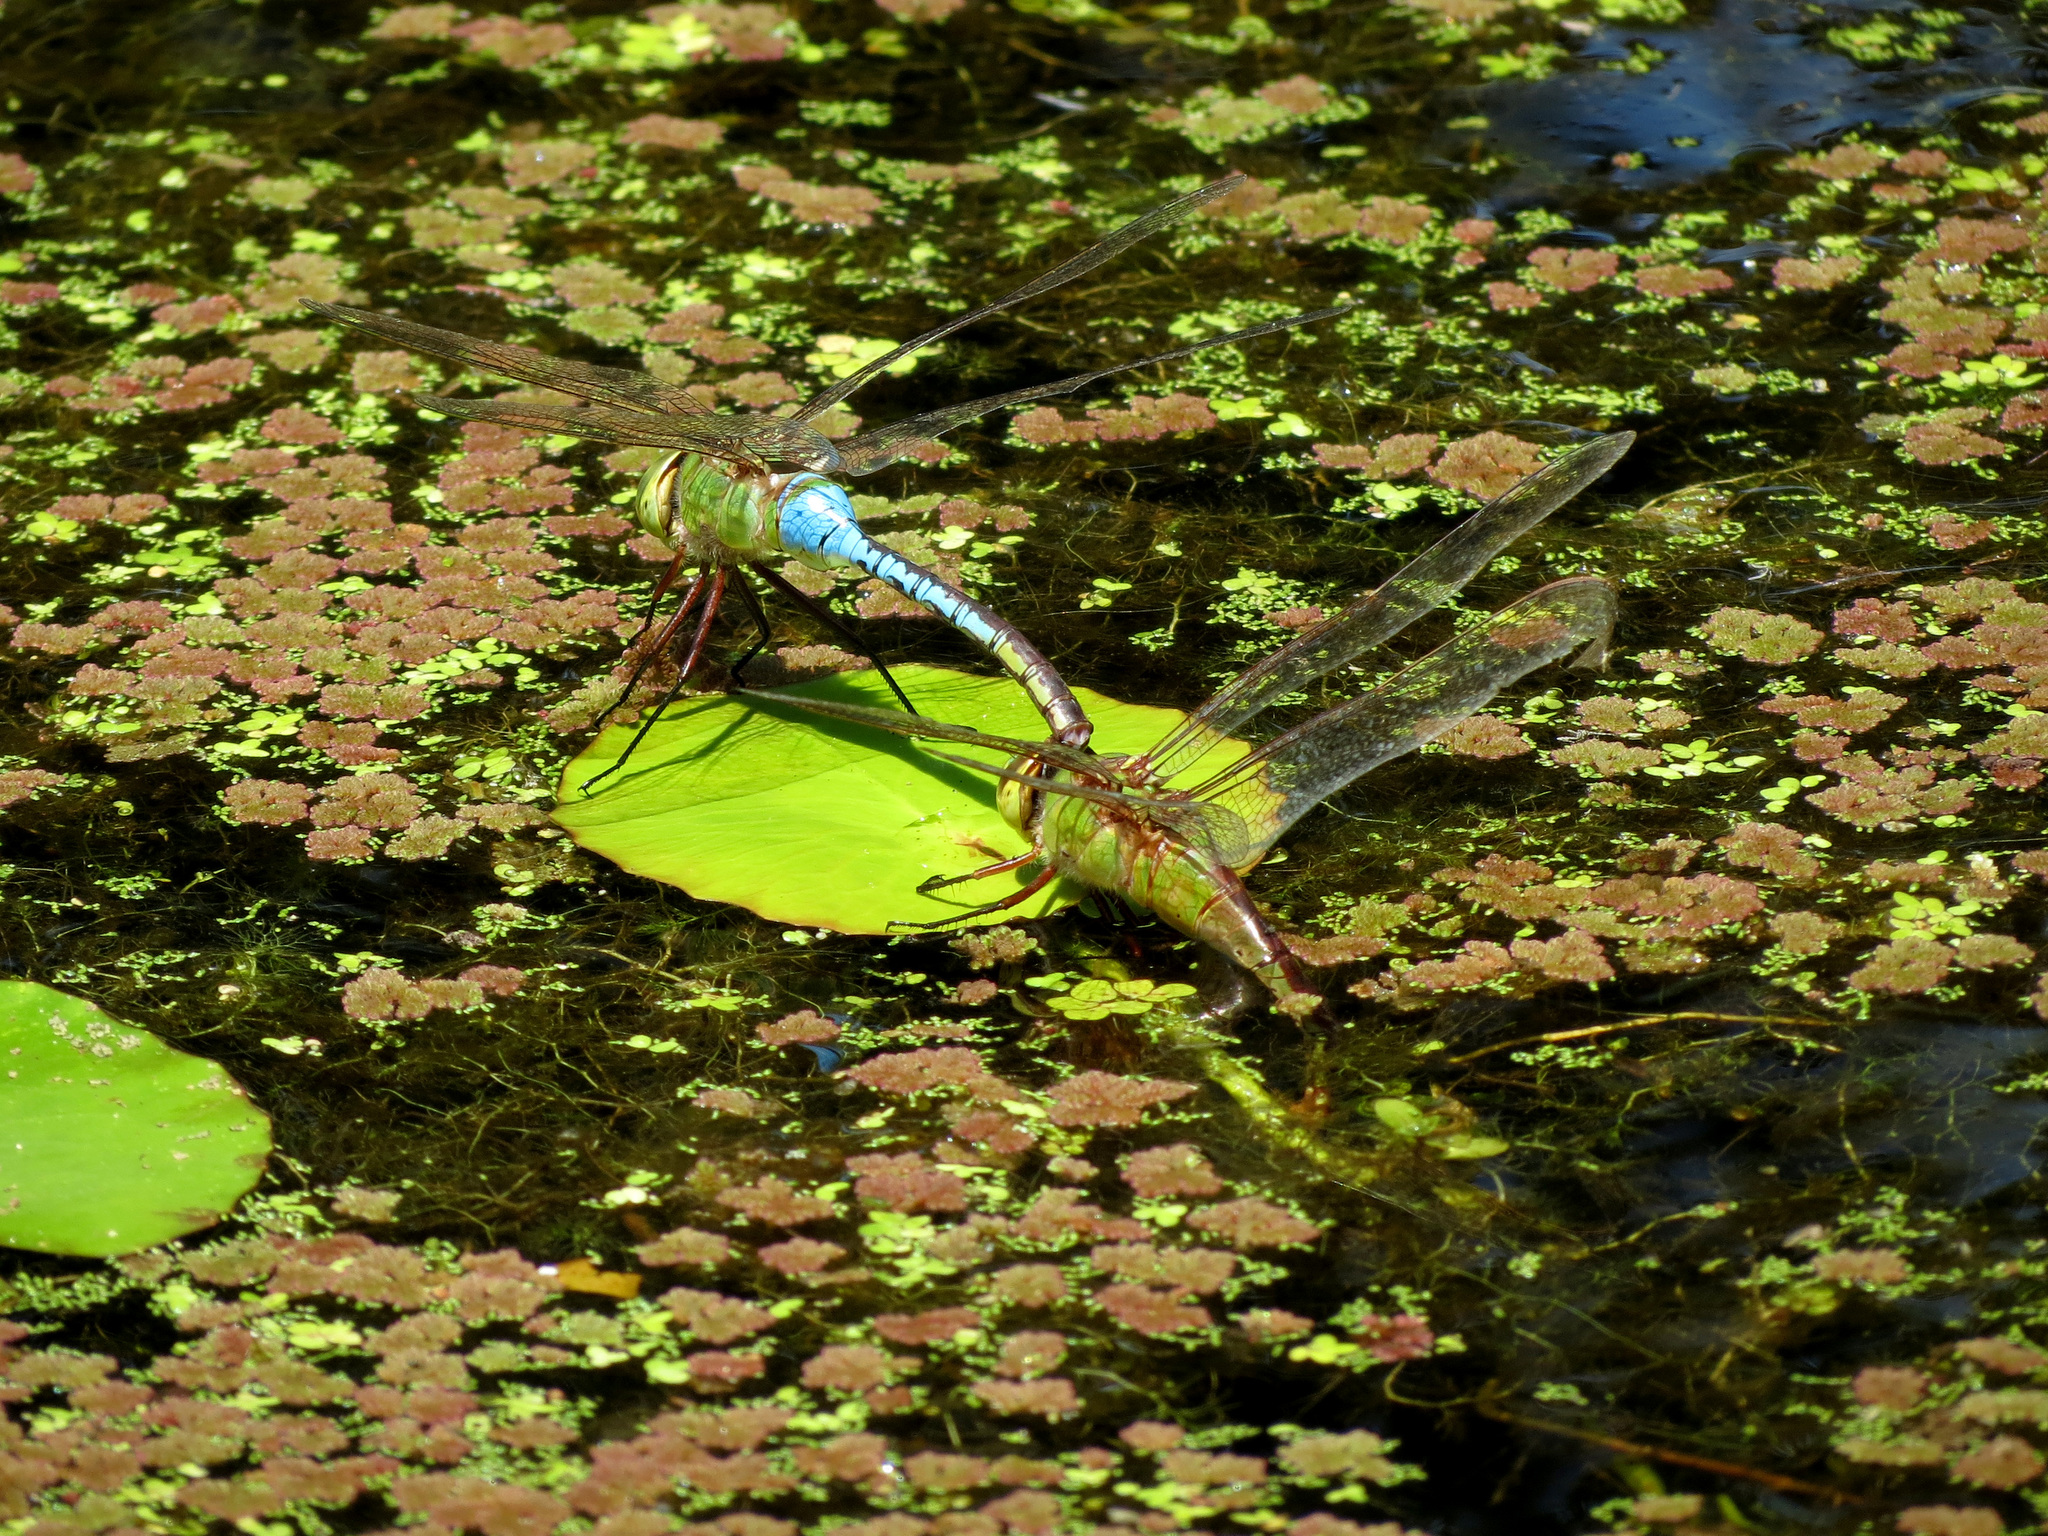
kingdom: Animalia
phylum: Arthropoda
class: Insecta
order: Odonata
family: Aeshnidae
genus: Anax
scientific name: Anax junius
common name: Common green darner
